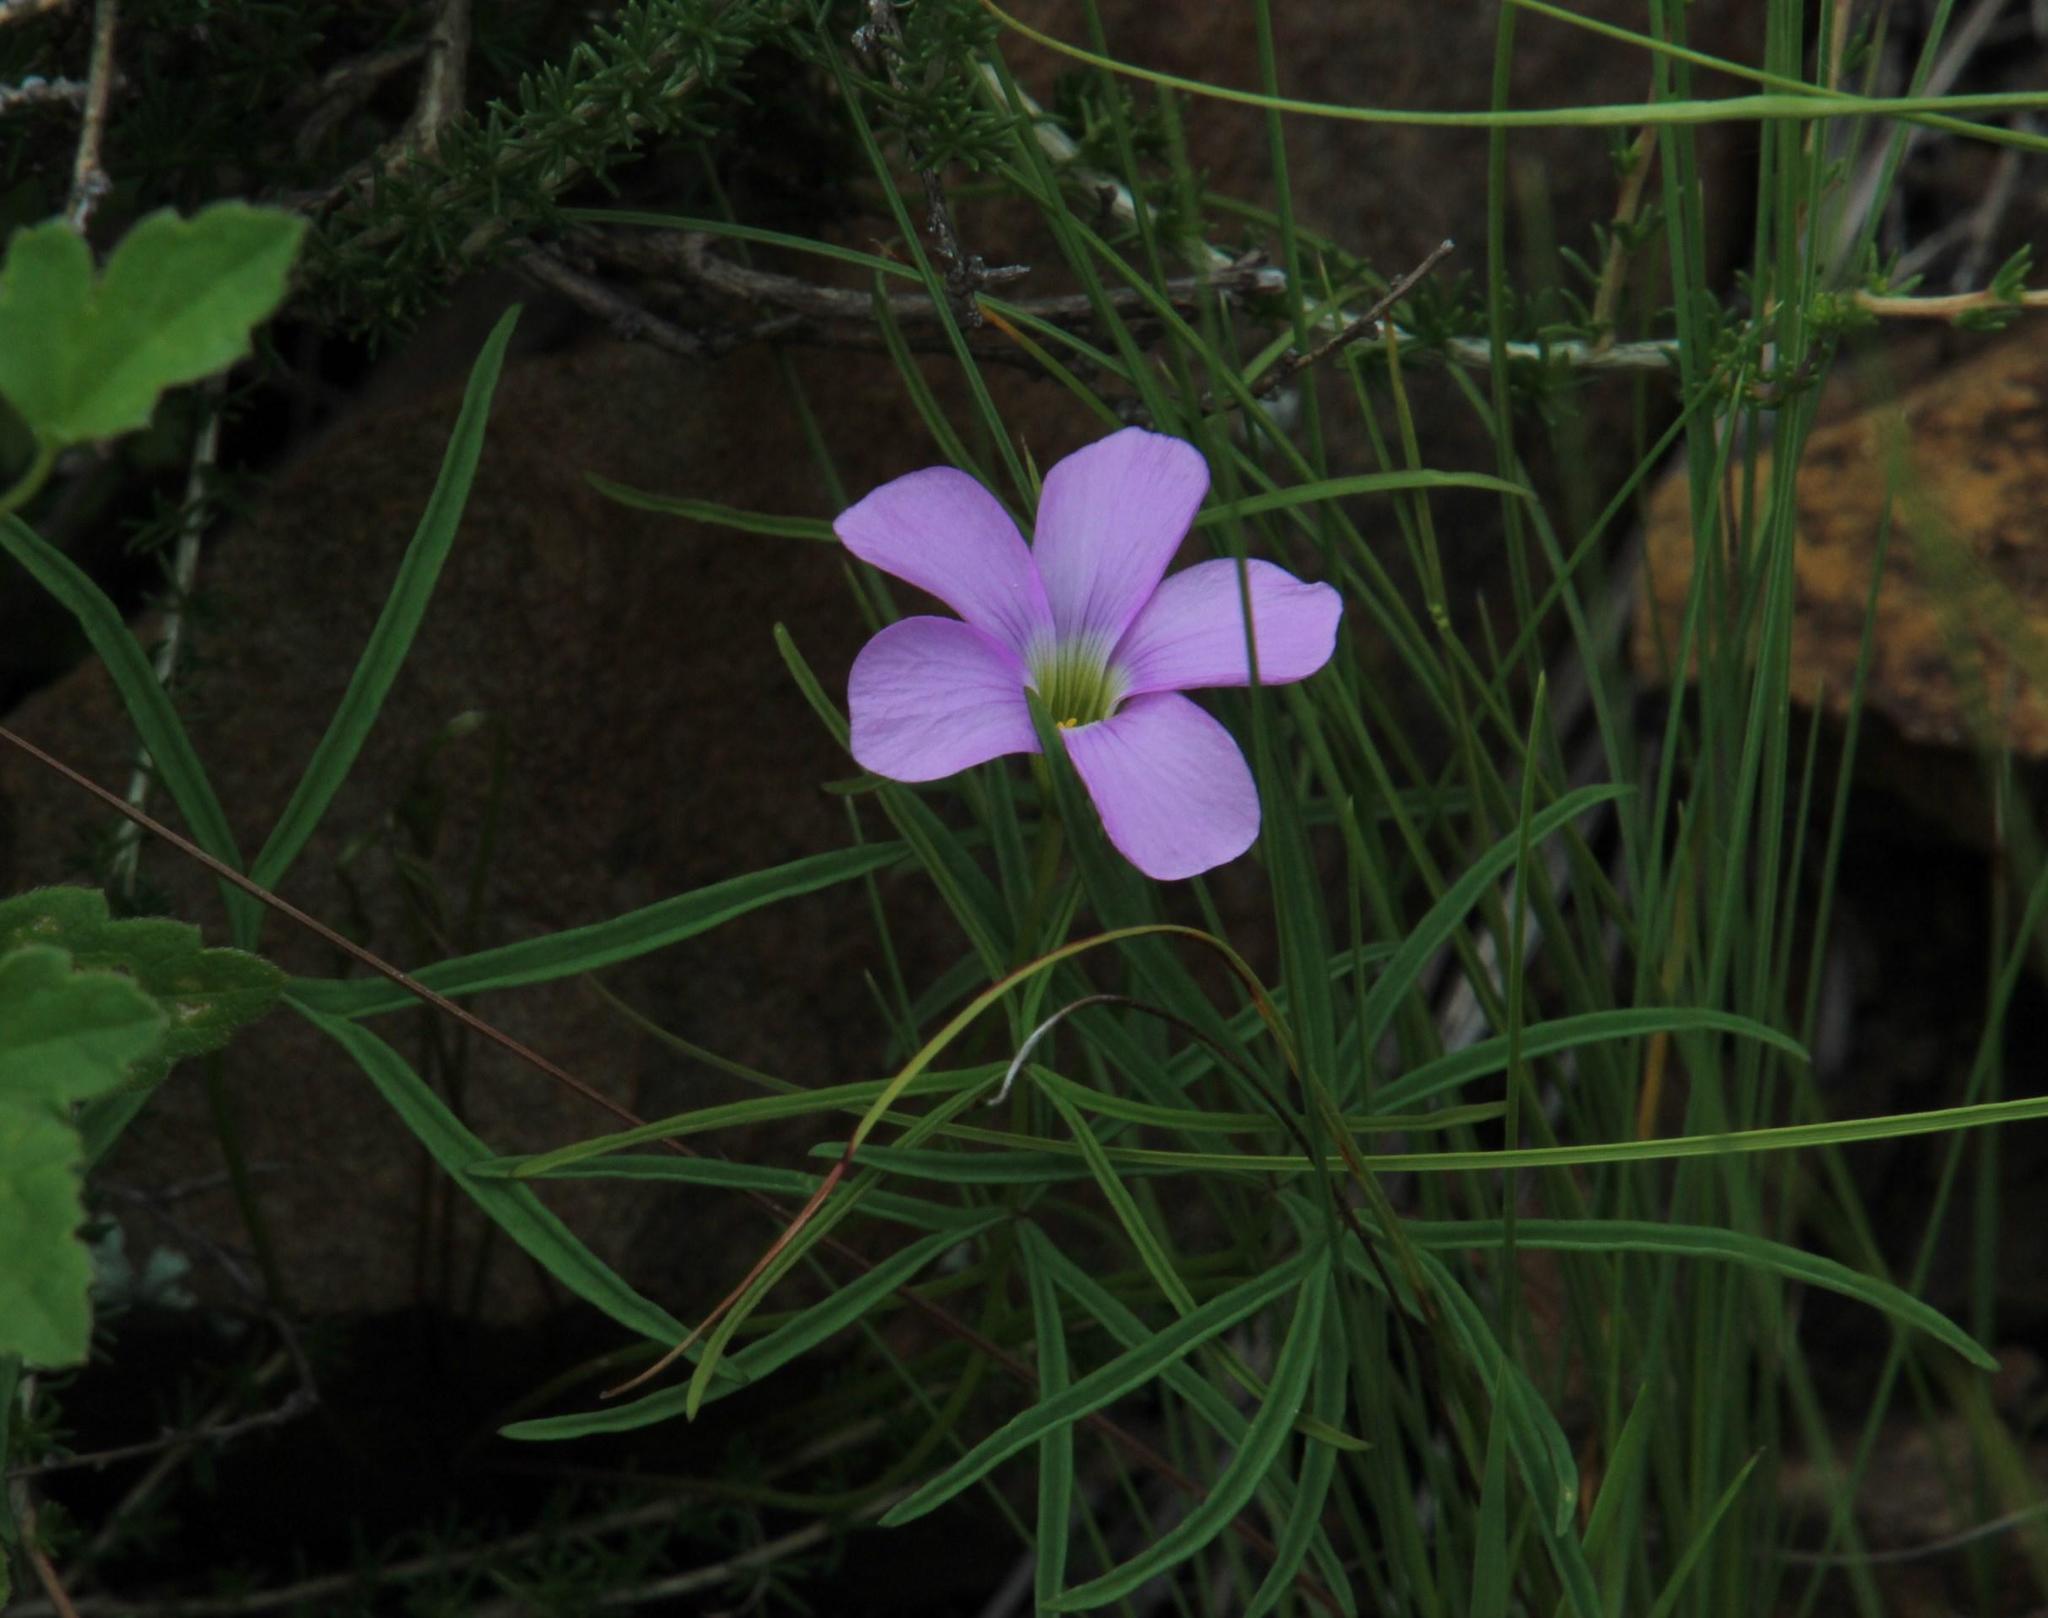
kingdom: Plantae
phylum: Tracheophyta
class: Magnoliopsida
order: Oxalidales
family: Oxalidaceae
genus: Oxalis
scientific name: Oxalis smithiana
